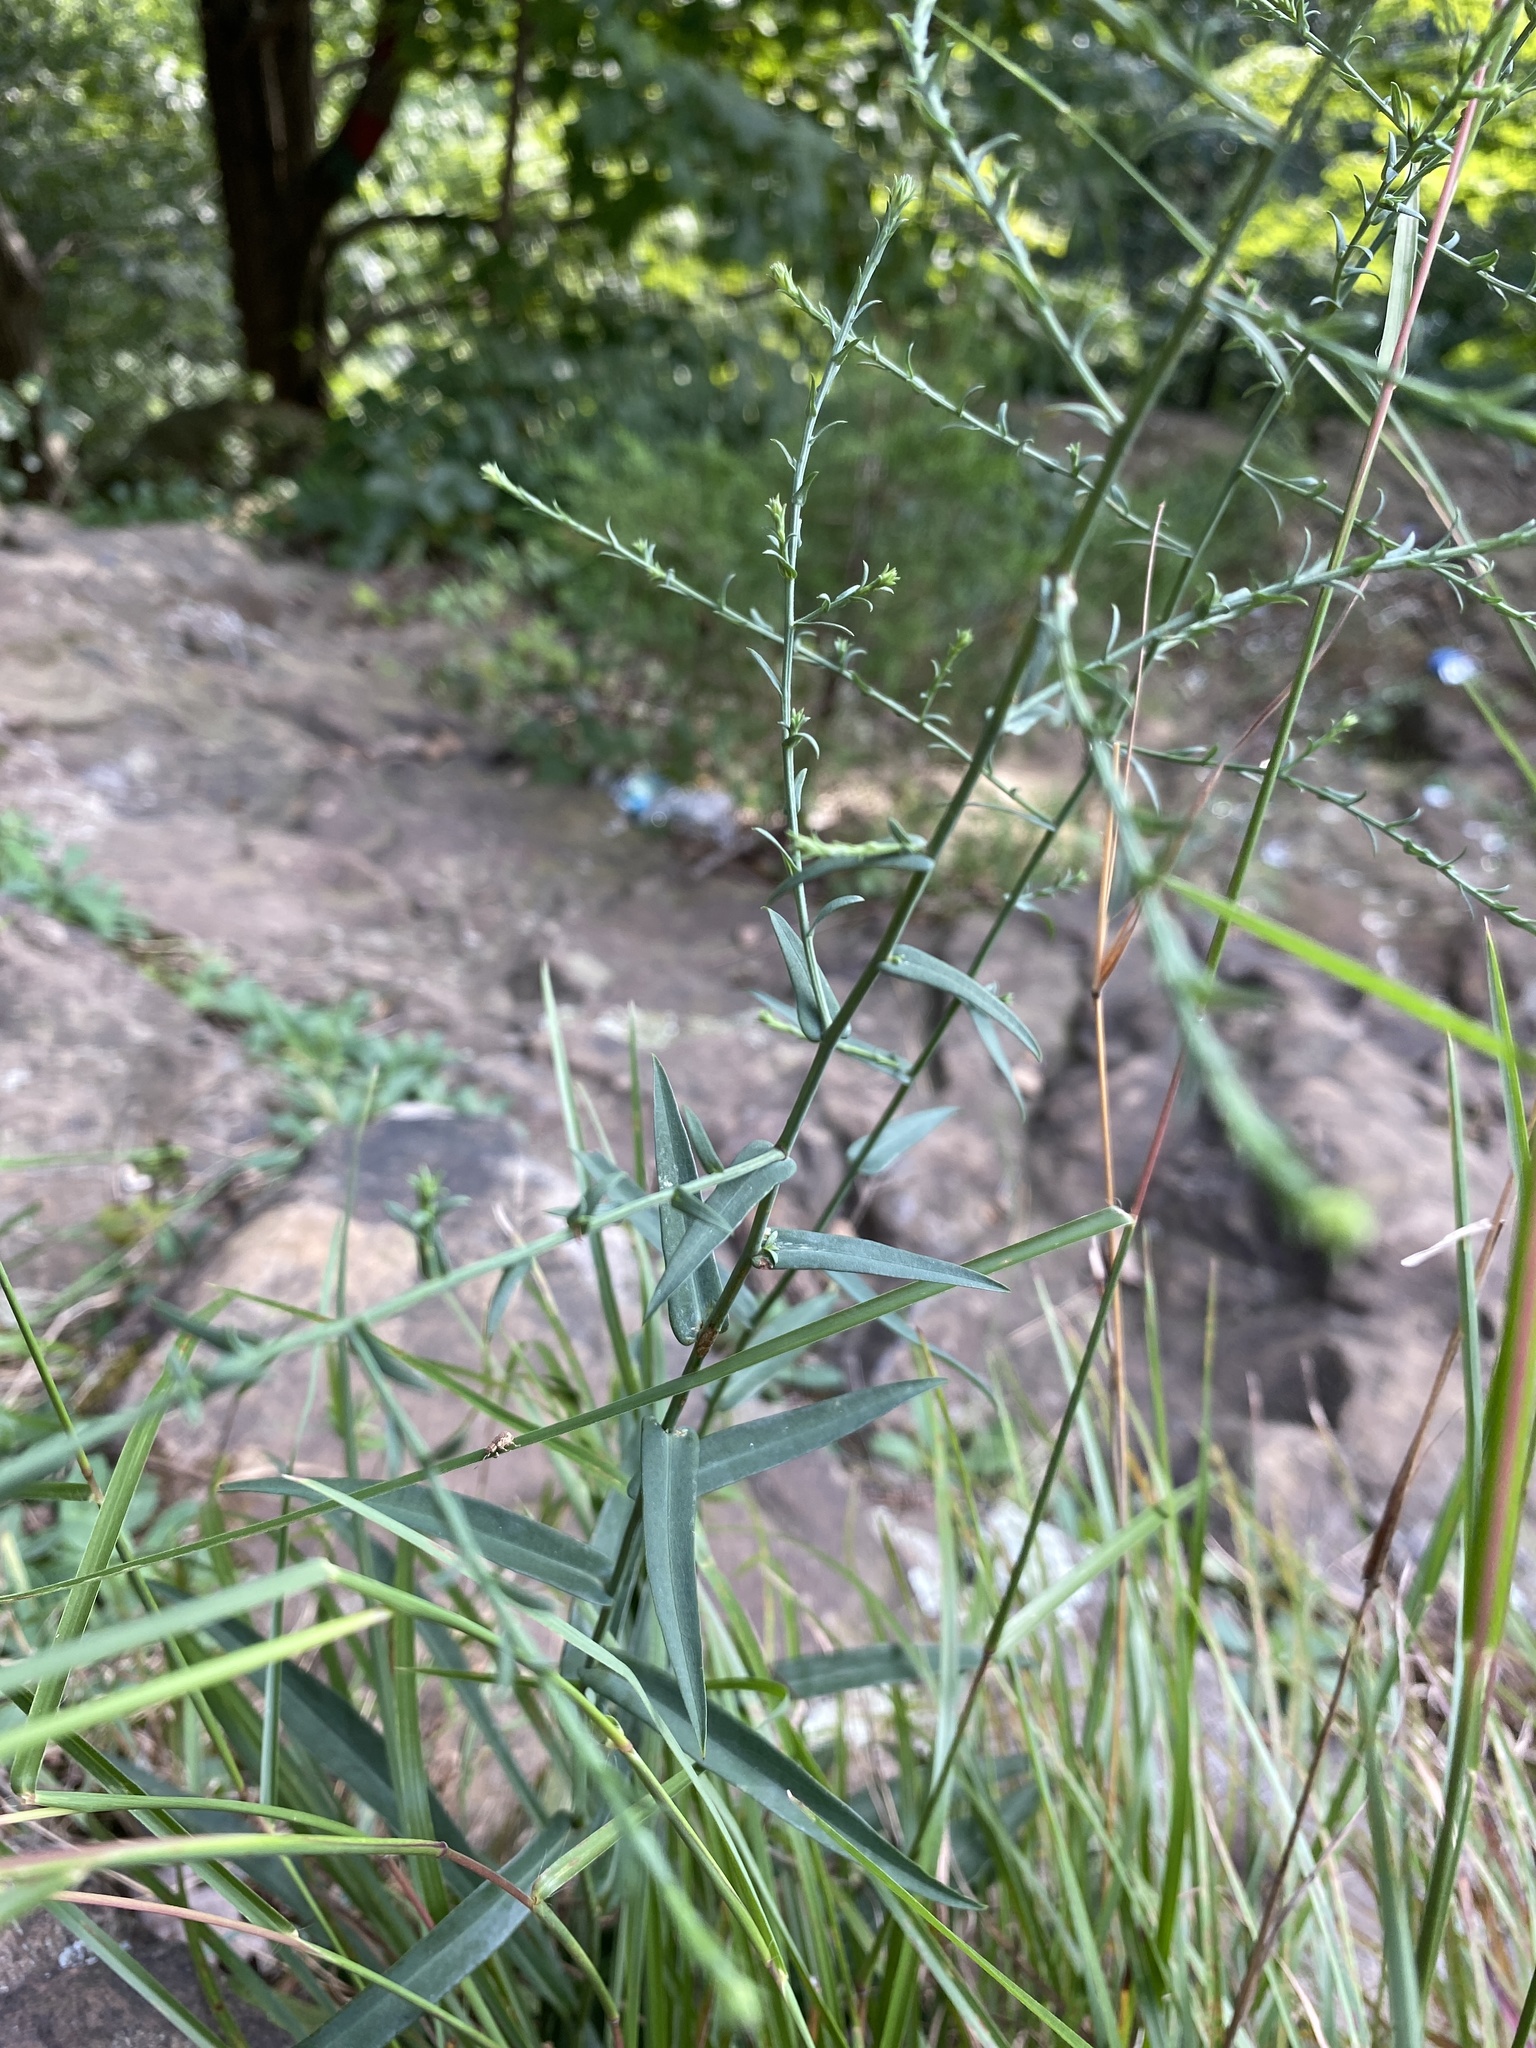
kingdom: Plantae
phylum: Tracheophyta
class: Magnoliopsida
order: Asterales
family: Asteraceae
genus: Symphyotrichum
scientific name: Symphyotrichum laeve
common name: Glaucous aster
